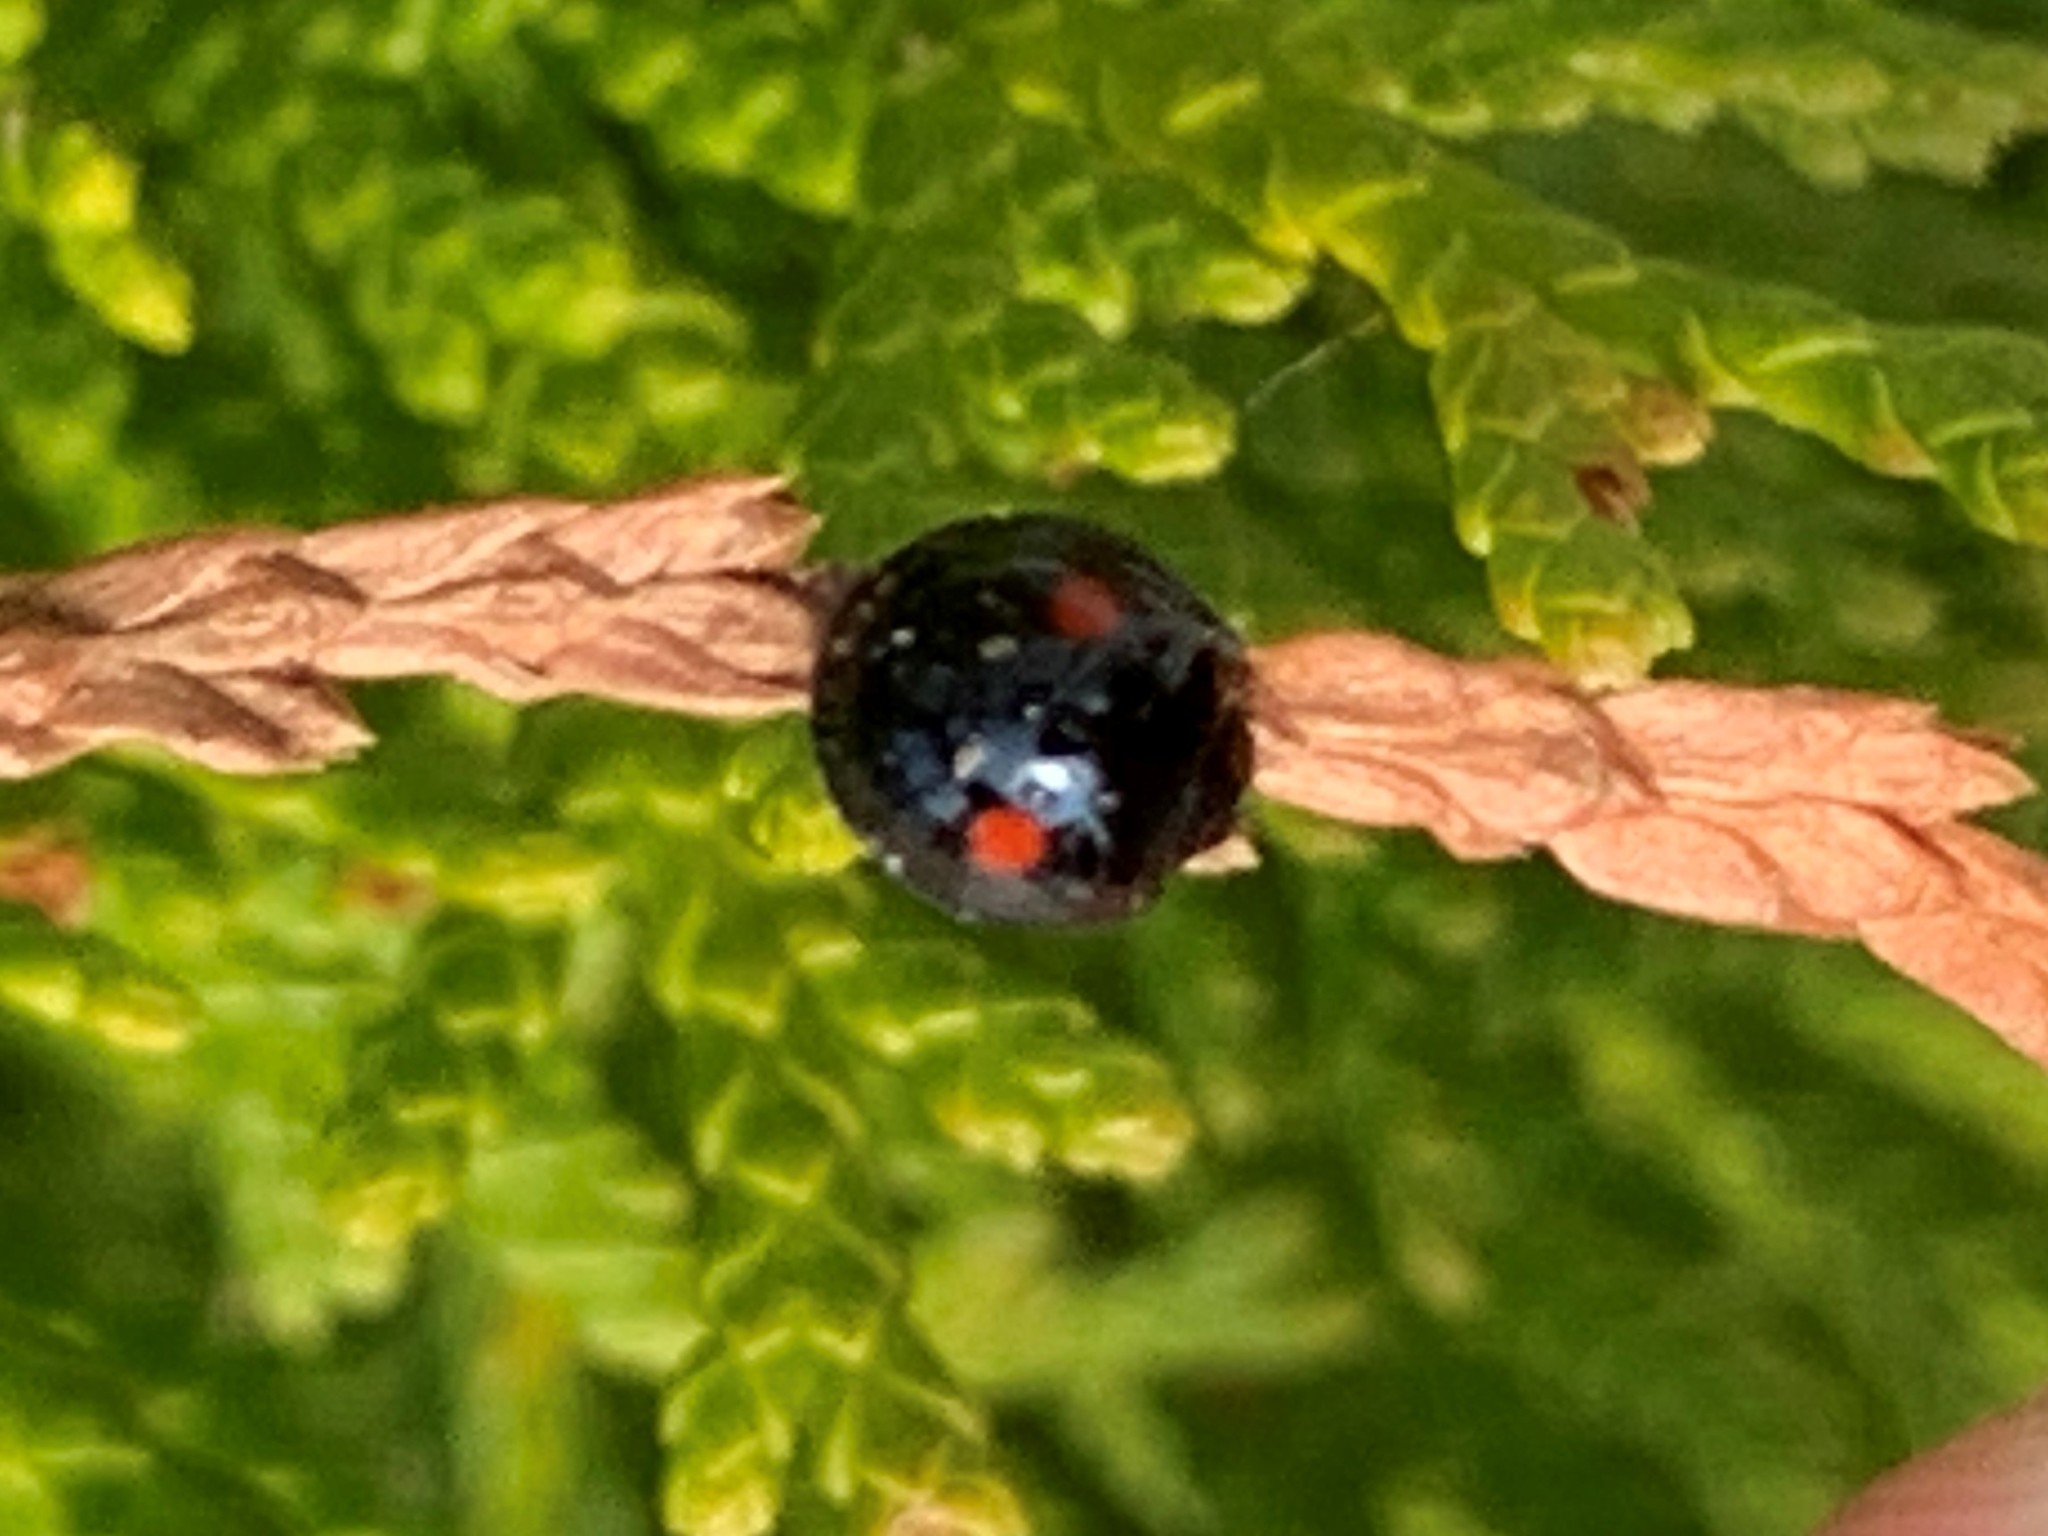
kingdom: Animalia
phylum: Arthropoda
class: Insecta
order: Coleoptera
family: Coccinellidae
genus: Chilocorus
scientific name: Chilocorus stigma
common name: Twicestabbed lady beetle
